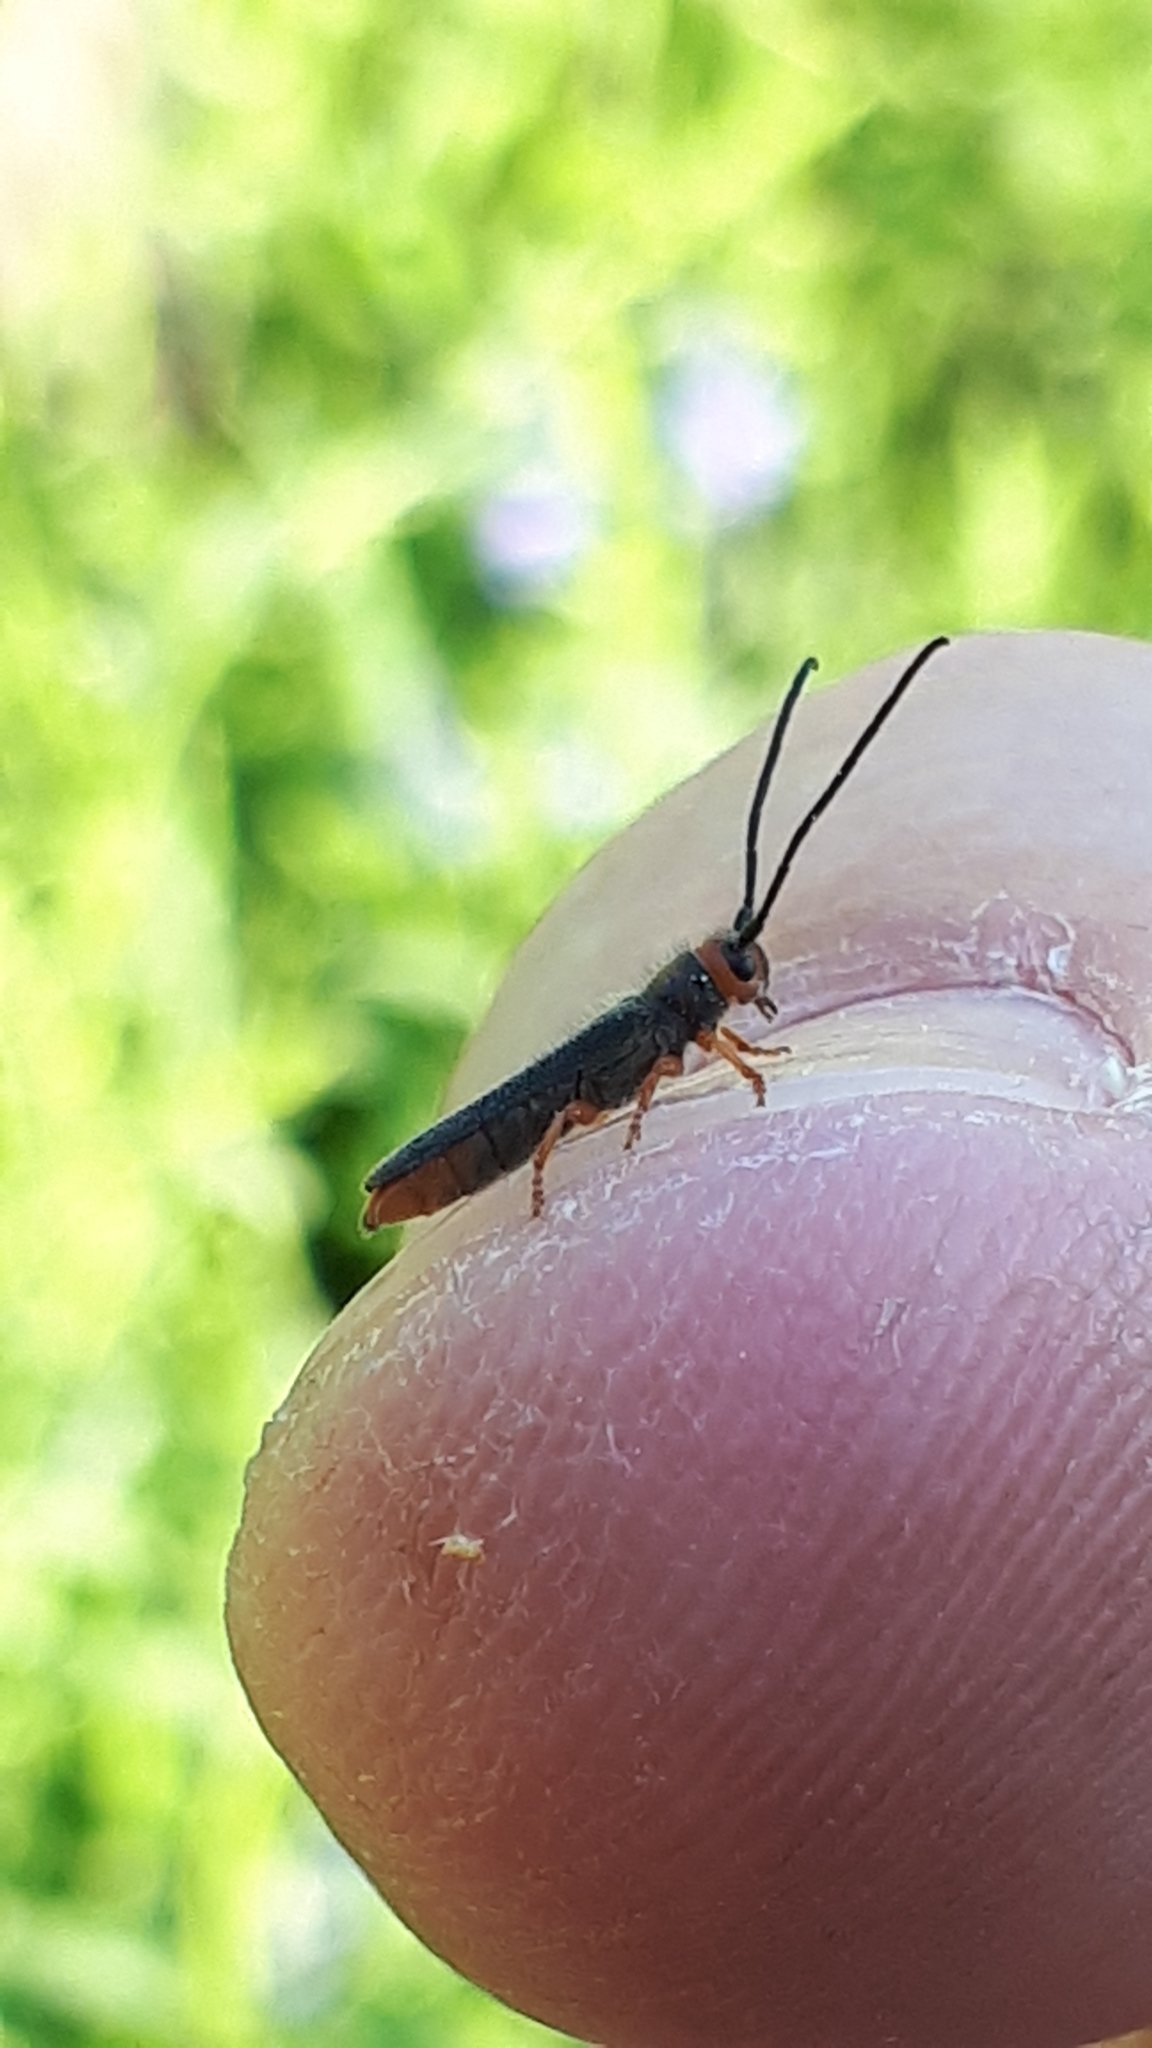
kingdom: Animalia
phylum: Arthropoda
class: Insecta
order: Coleoptera
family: Cerambycidae
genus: Oberea
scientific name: Oberea erythrocephala
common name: Leafy spurge stem boring beetle
